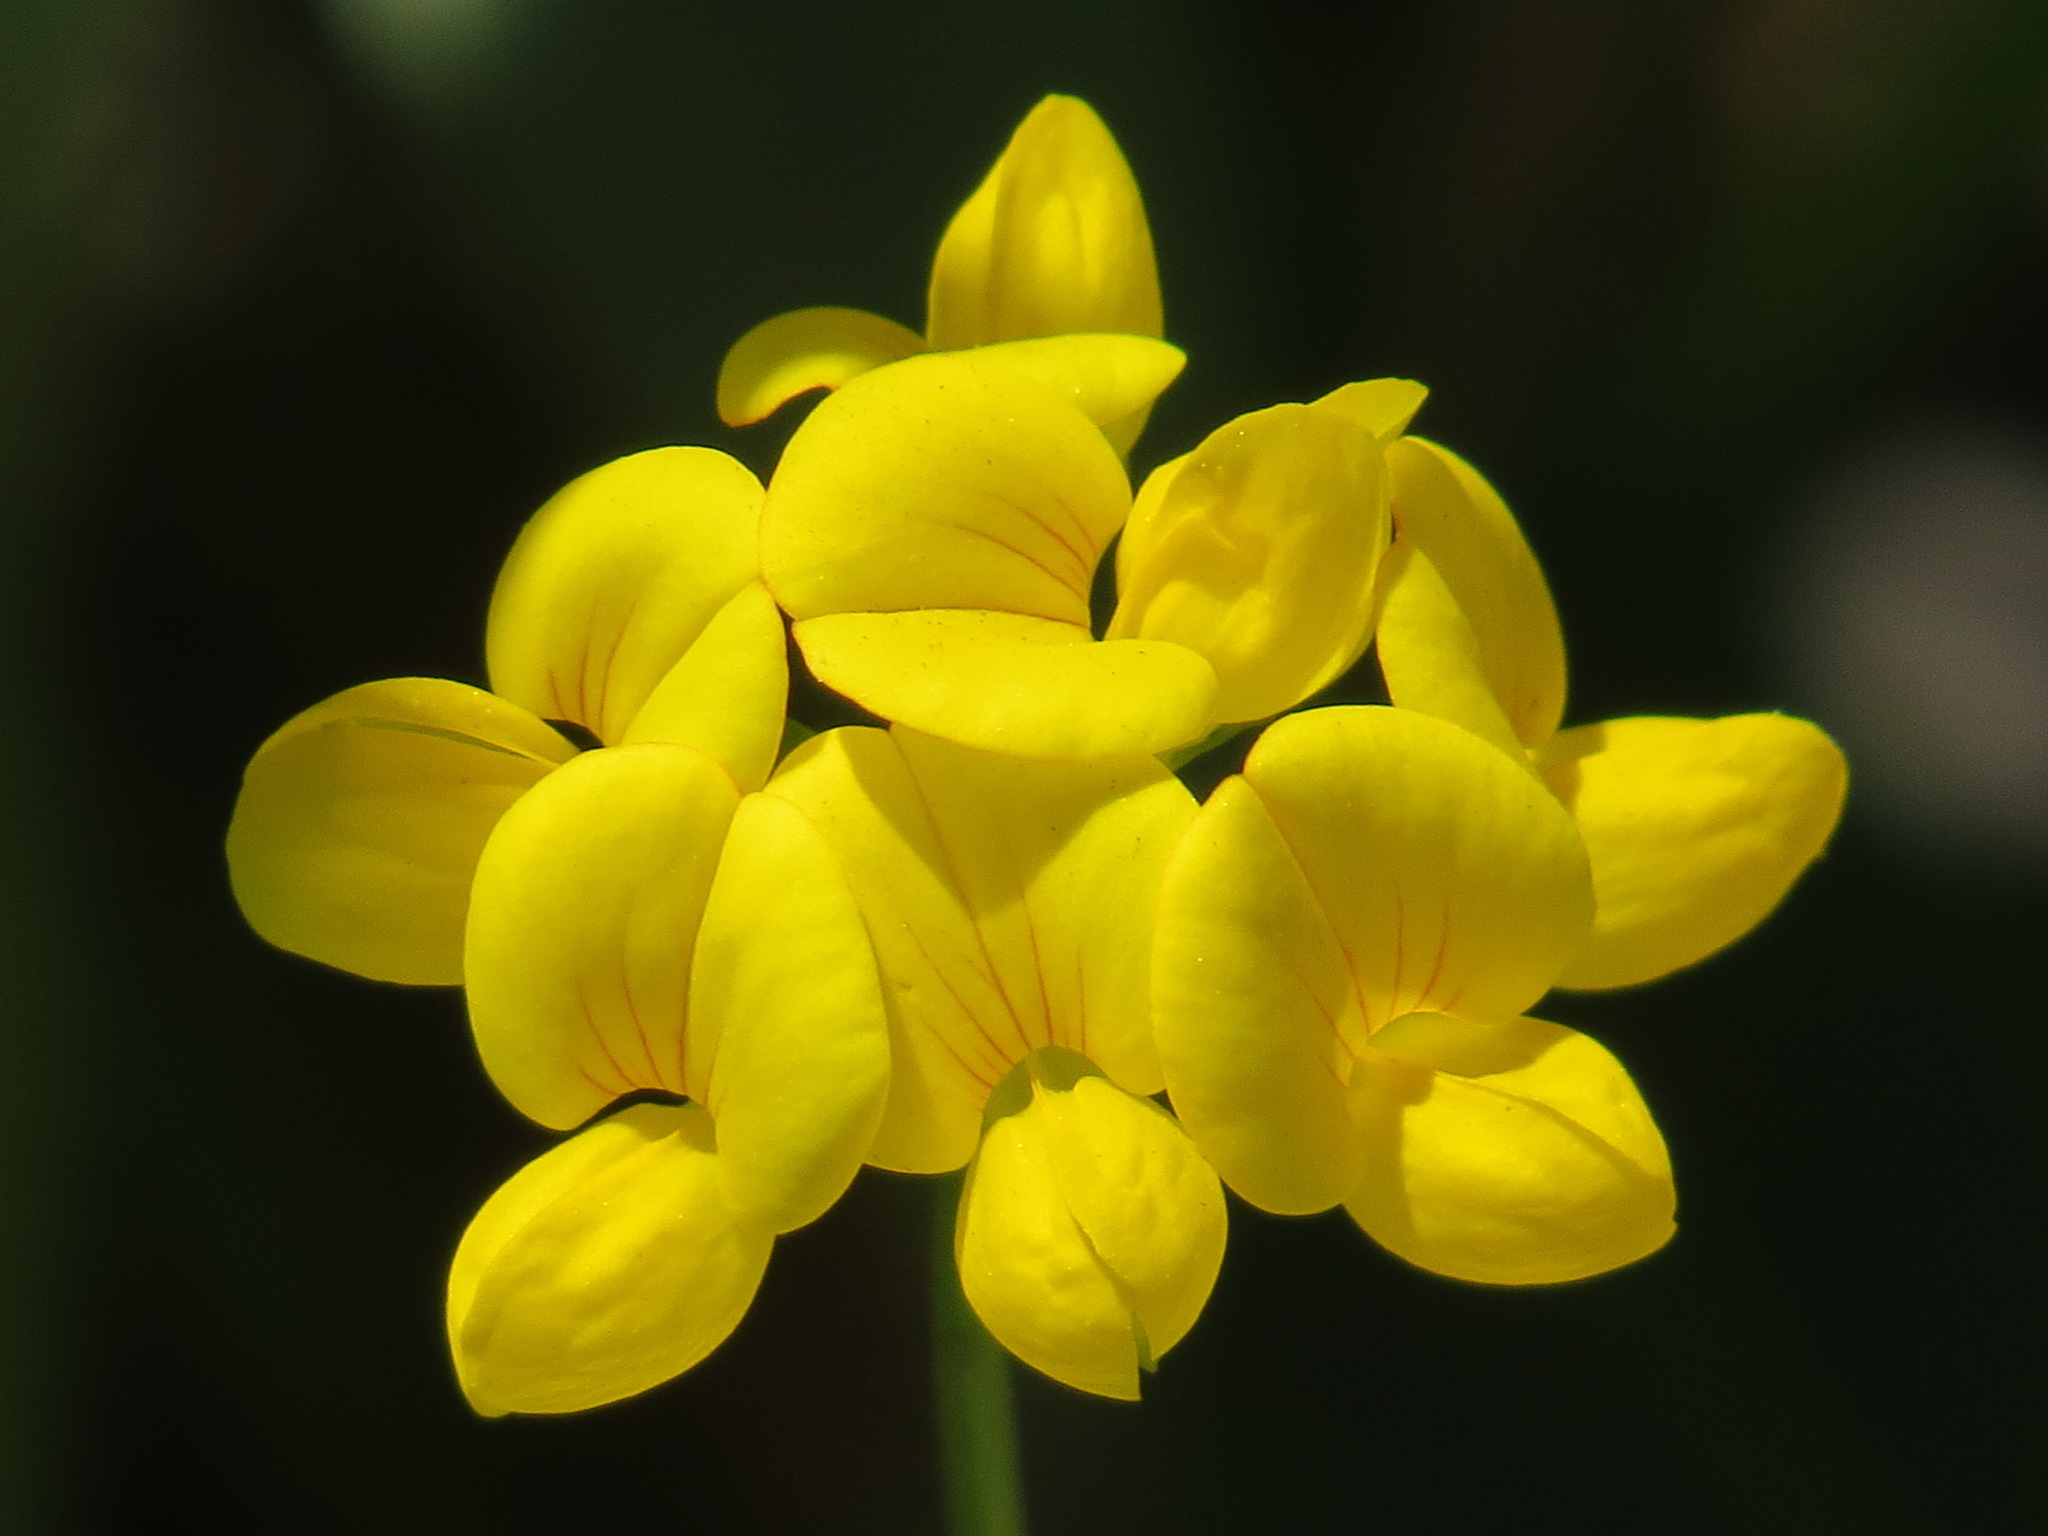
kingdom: Plantae
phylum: Tracheophyta
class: Magnoliopsida
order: Fabales
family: Fabaceae
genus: Lotus
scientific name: Lotus corniculatus
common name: Common bird's-foot-trefoil
